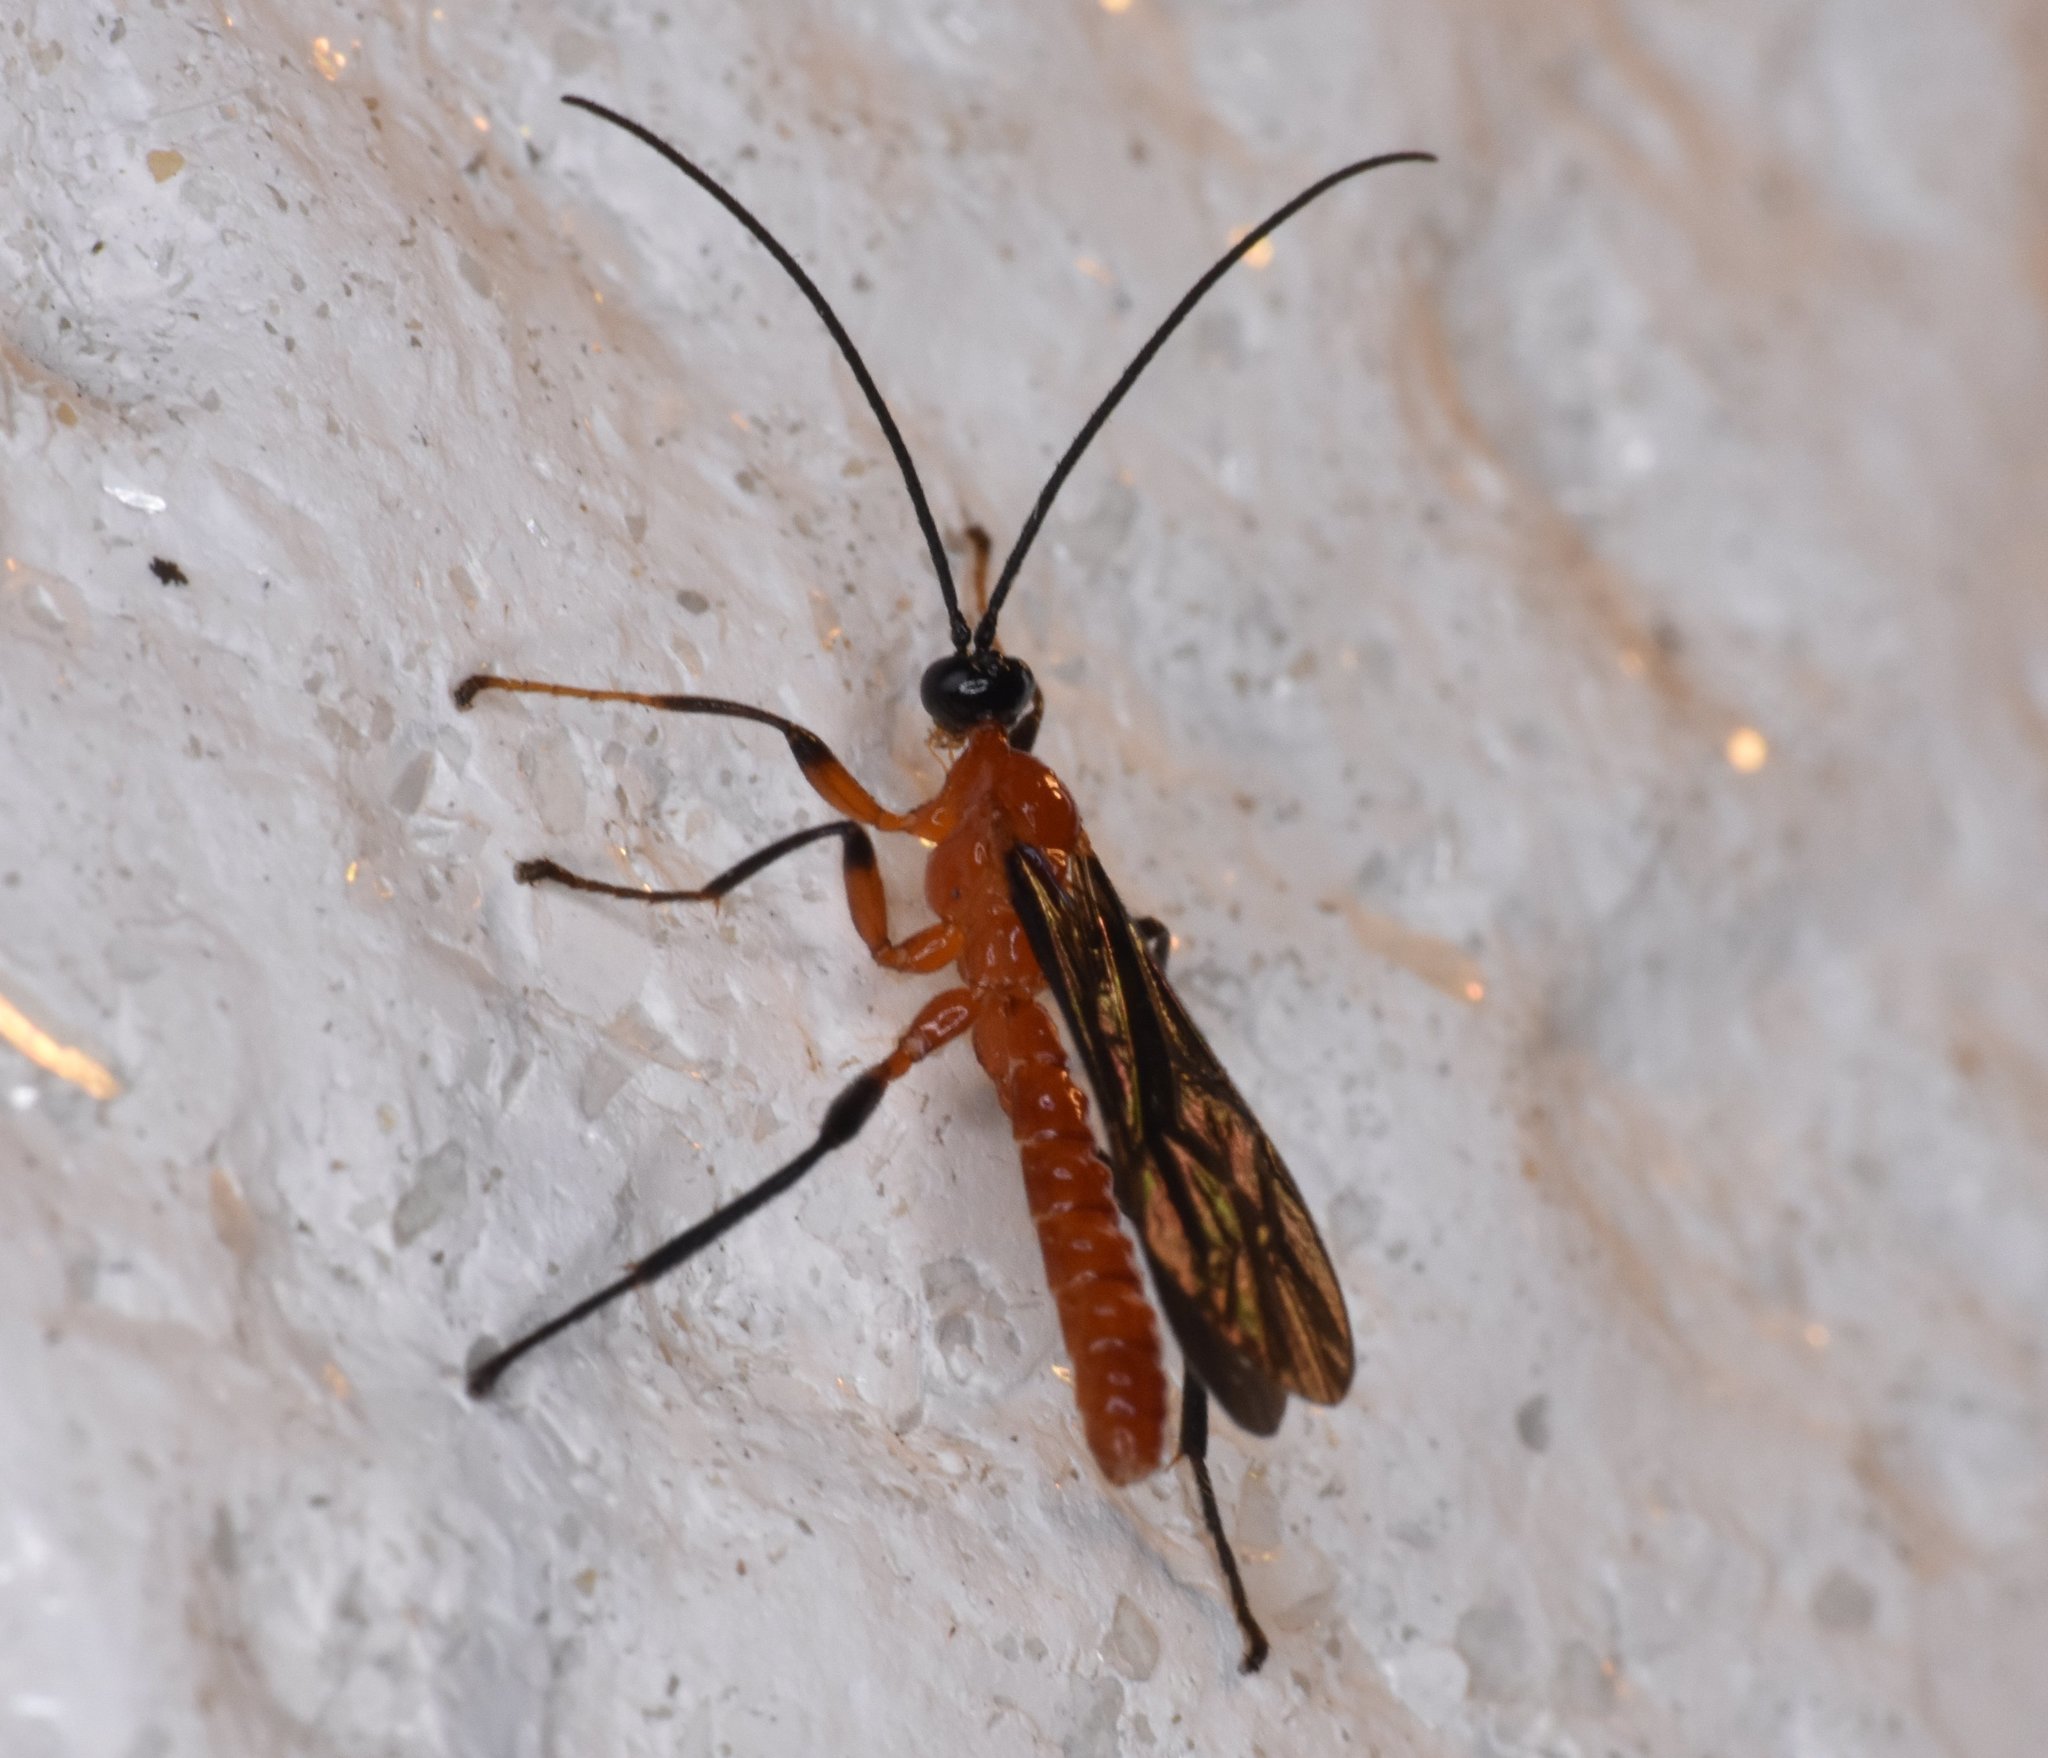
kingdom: Animalia
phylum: Arthropoda
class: Insecta
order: Hymenoptera
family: Ichneumonidae
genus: Acrotaphus
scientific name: Acrotaphus fuscipennis
